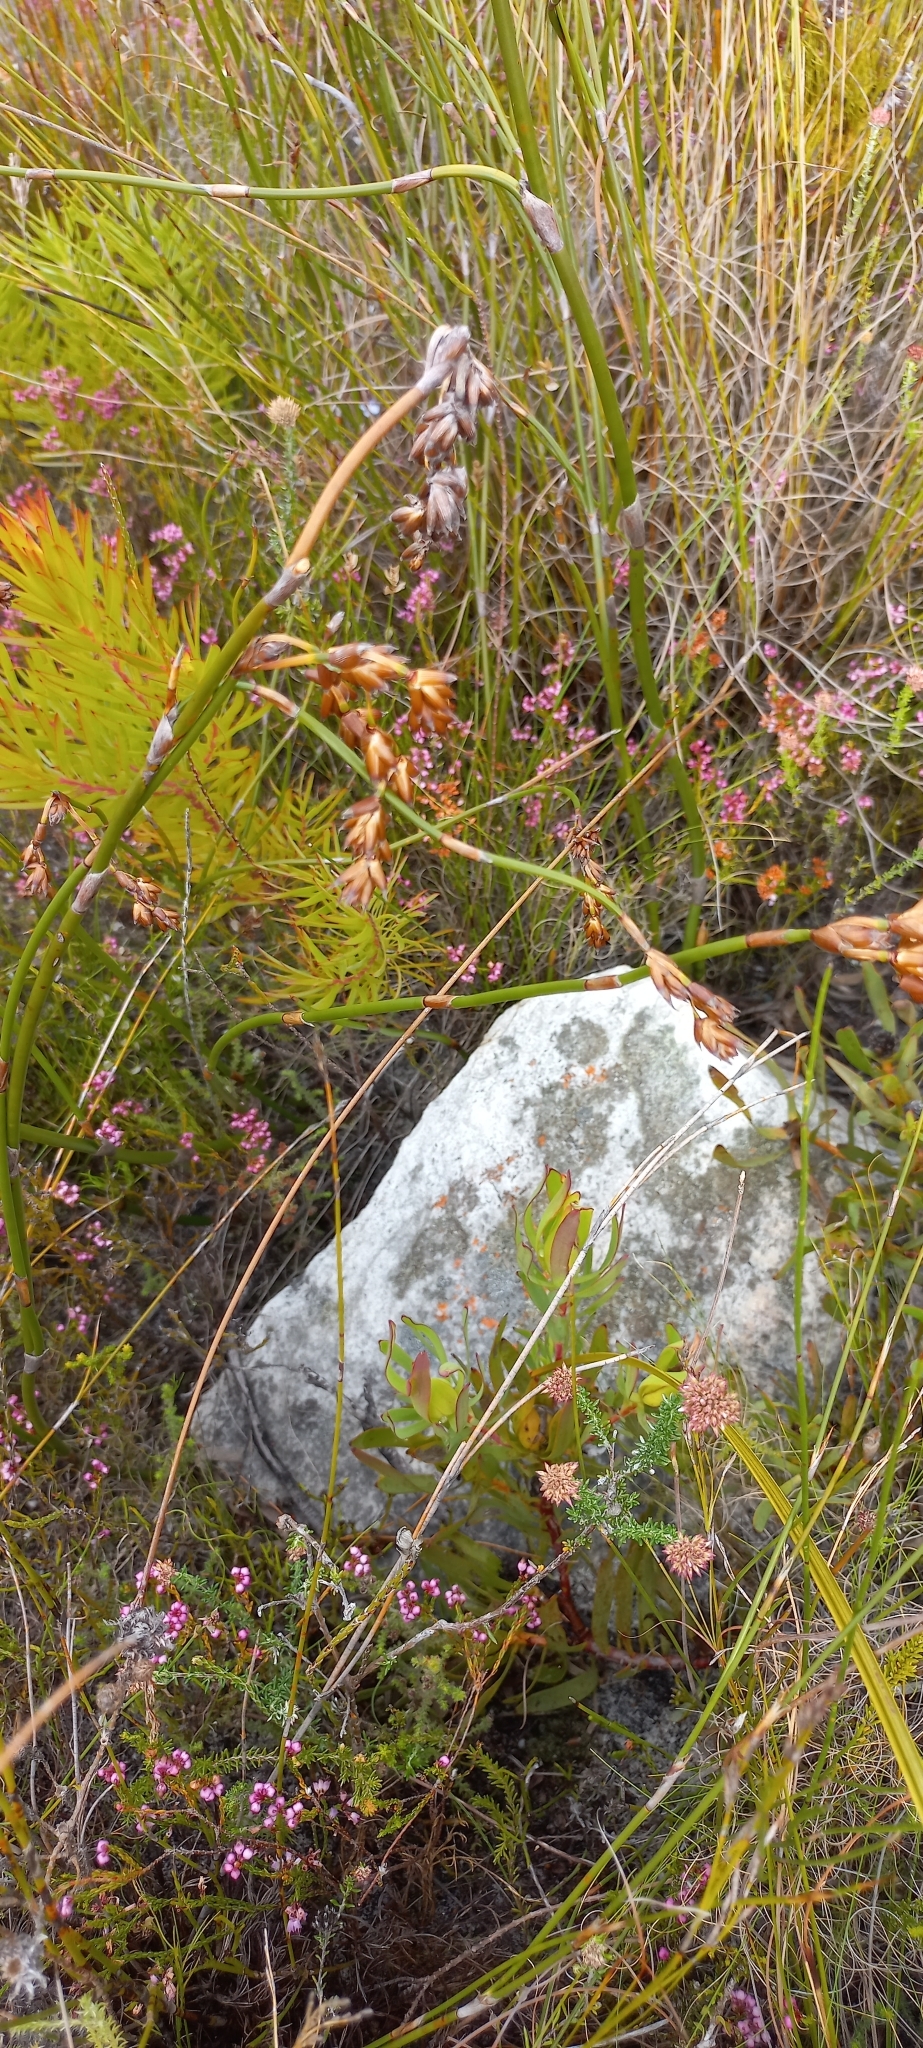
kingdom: Plantae
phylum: Tracheophyta
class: Liliopsida
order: Poales
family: Restionaceae
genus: Restio
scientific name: Restio egregius
